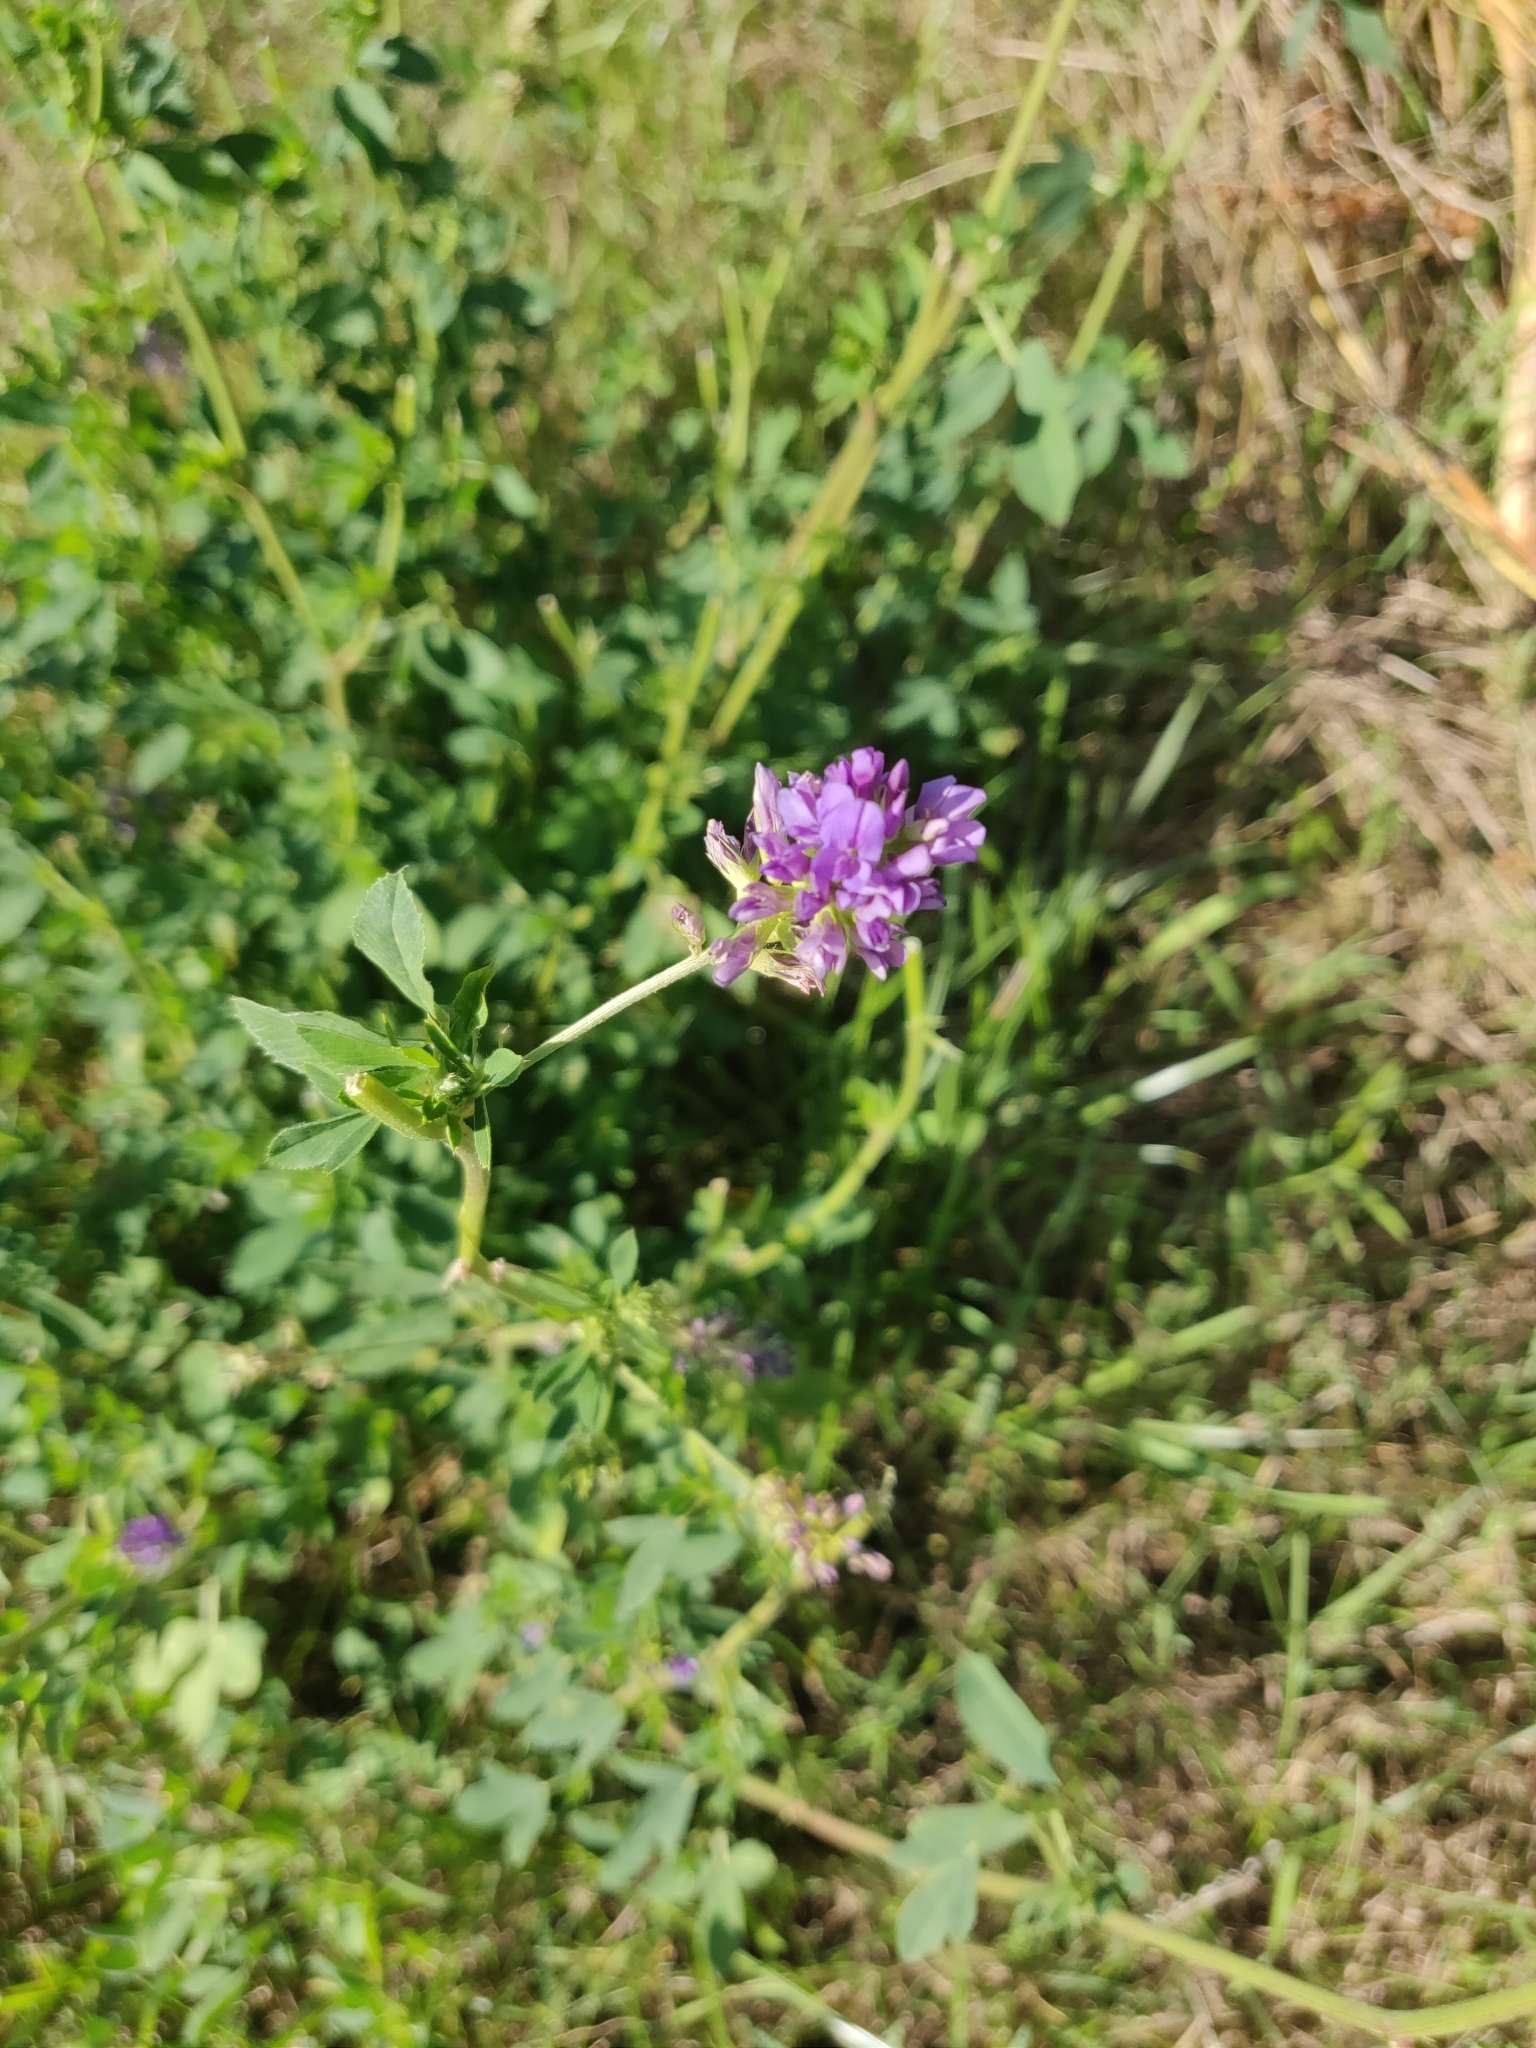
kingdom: Plantae
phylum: Tracheophyta
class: Magnoliopsida
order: Fabales
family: Fabaceae
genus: Medicago
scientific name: Medicago sativa
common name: Alfalfa
